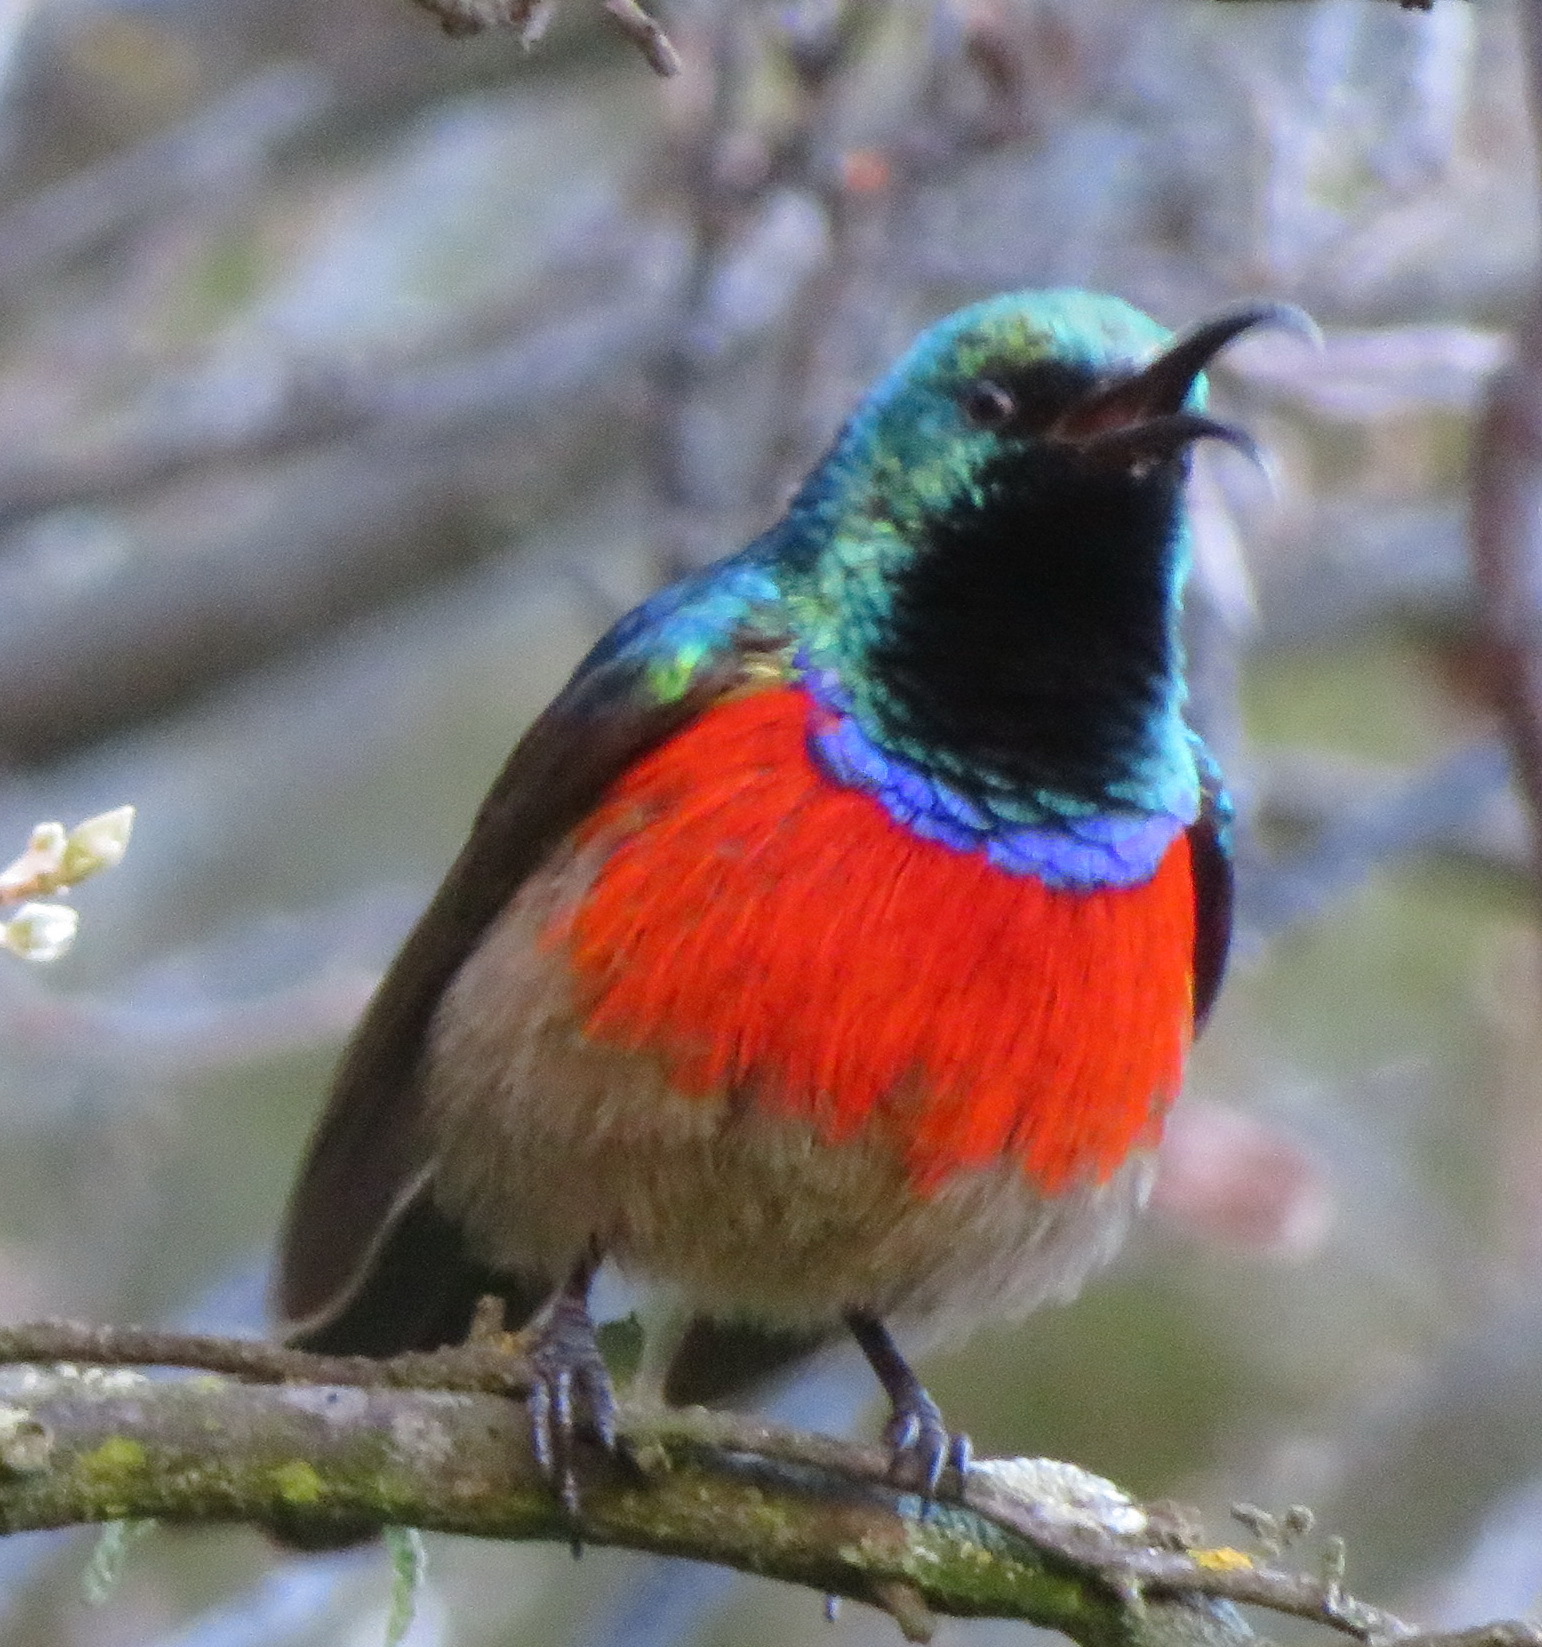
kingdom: Animalia
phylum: Chordata
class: Aves
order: Passeriformes
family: Nectariniidae
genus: Cinnyris
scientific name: Cinnyris afer
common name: Greater double-collared sunbird
